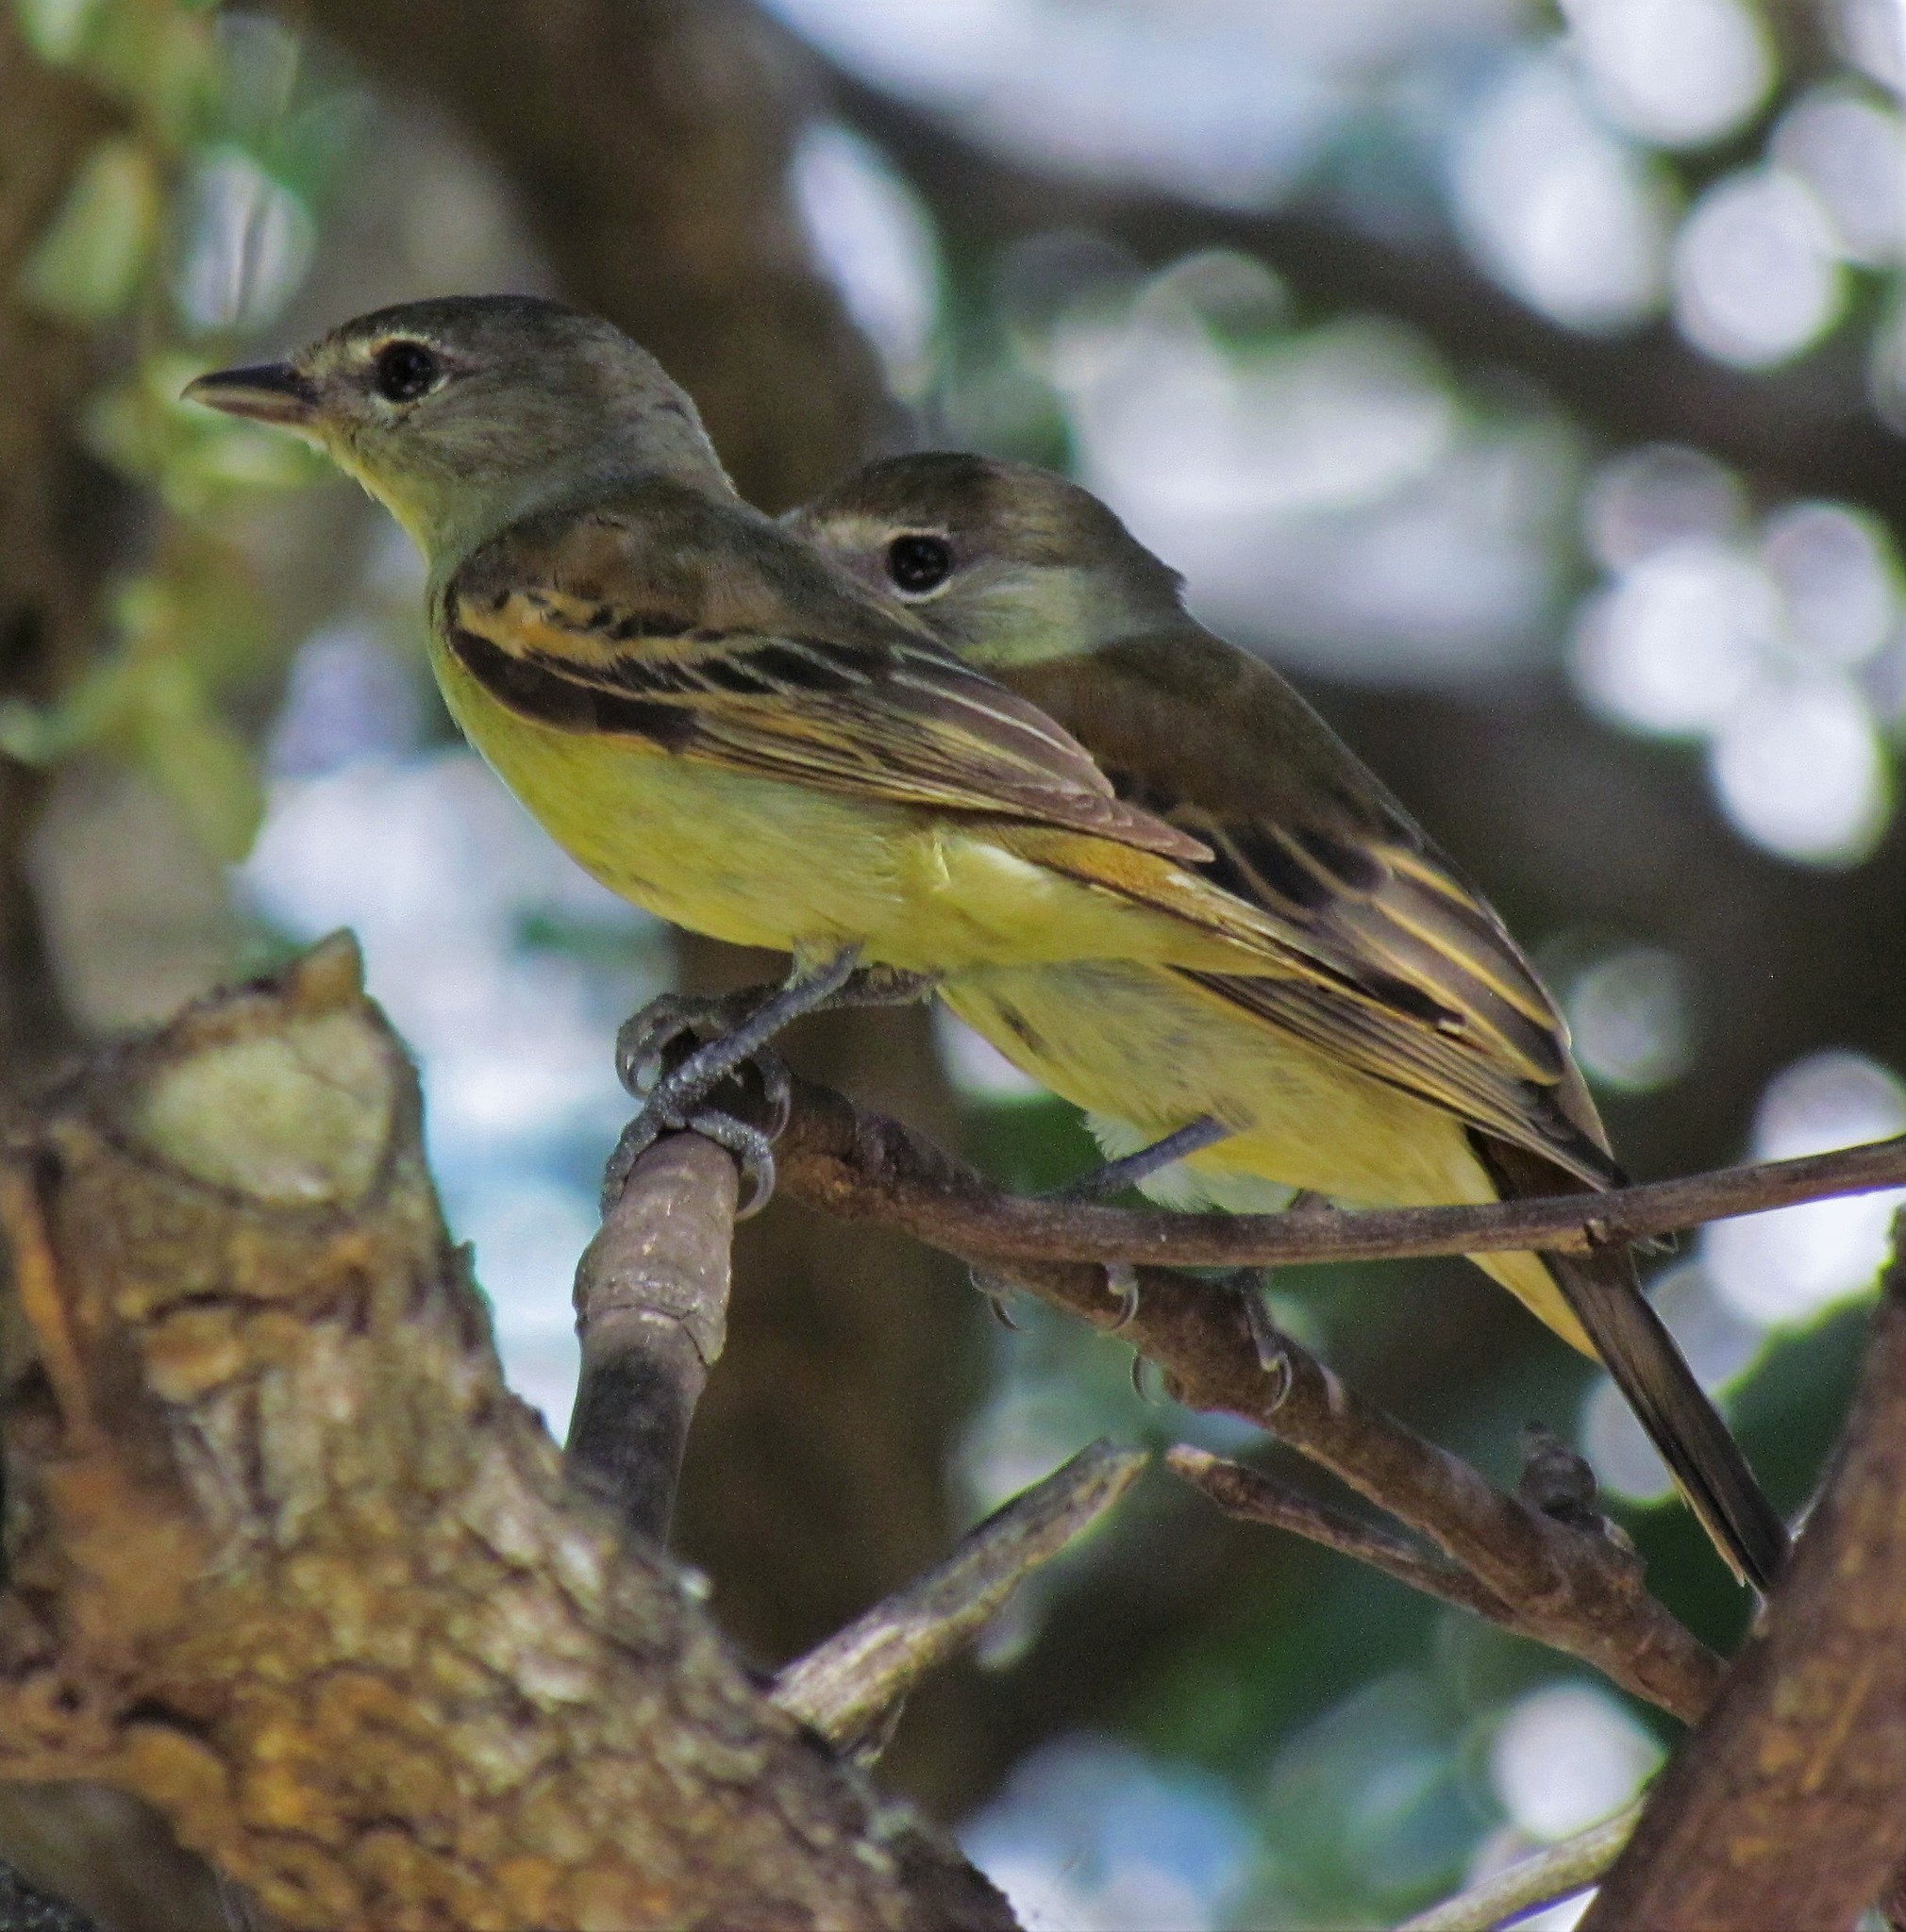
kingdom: Animalia
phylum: Chordata
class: Aves
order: Passeriformes
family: Cotingidae
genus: Pachyramphus
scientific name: Pachyramphus polychopterus
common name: White-winged becard
